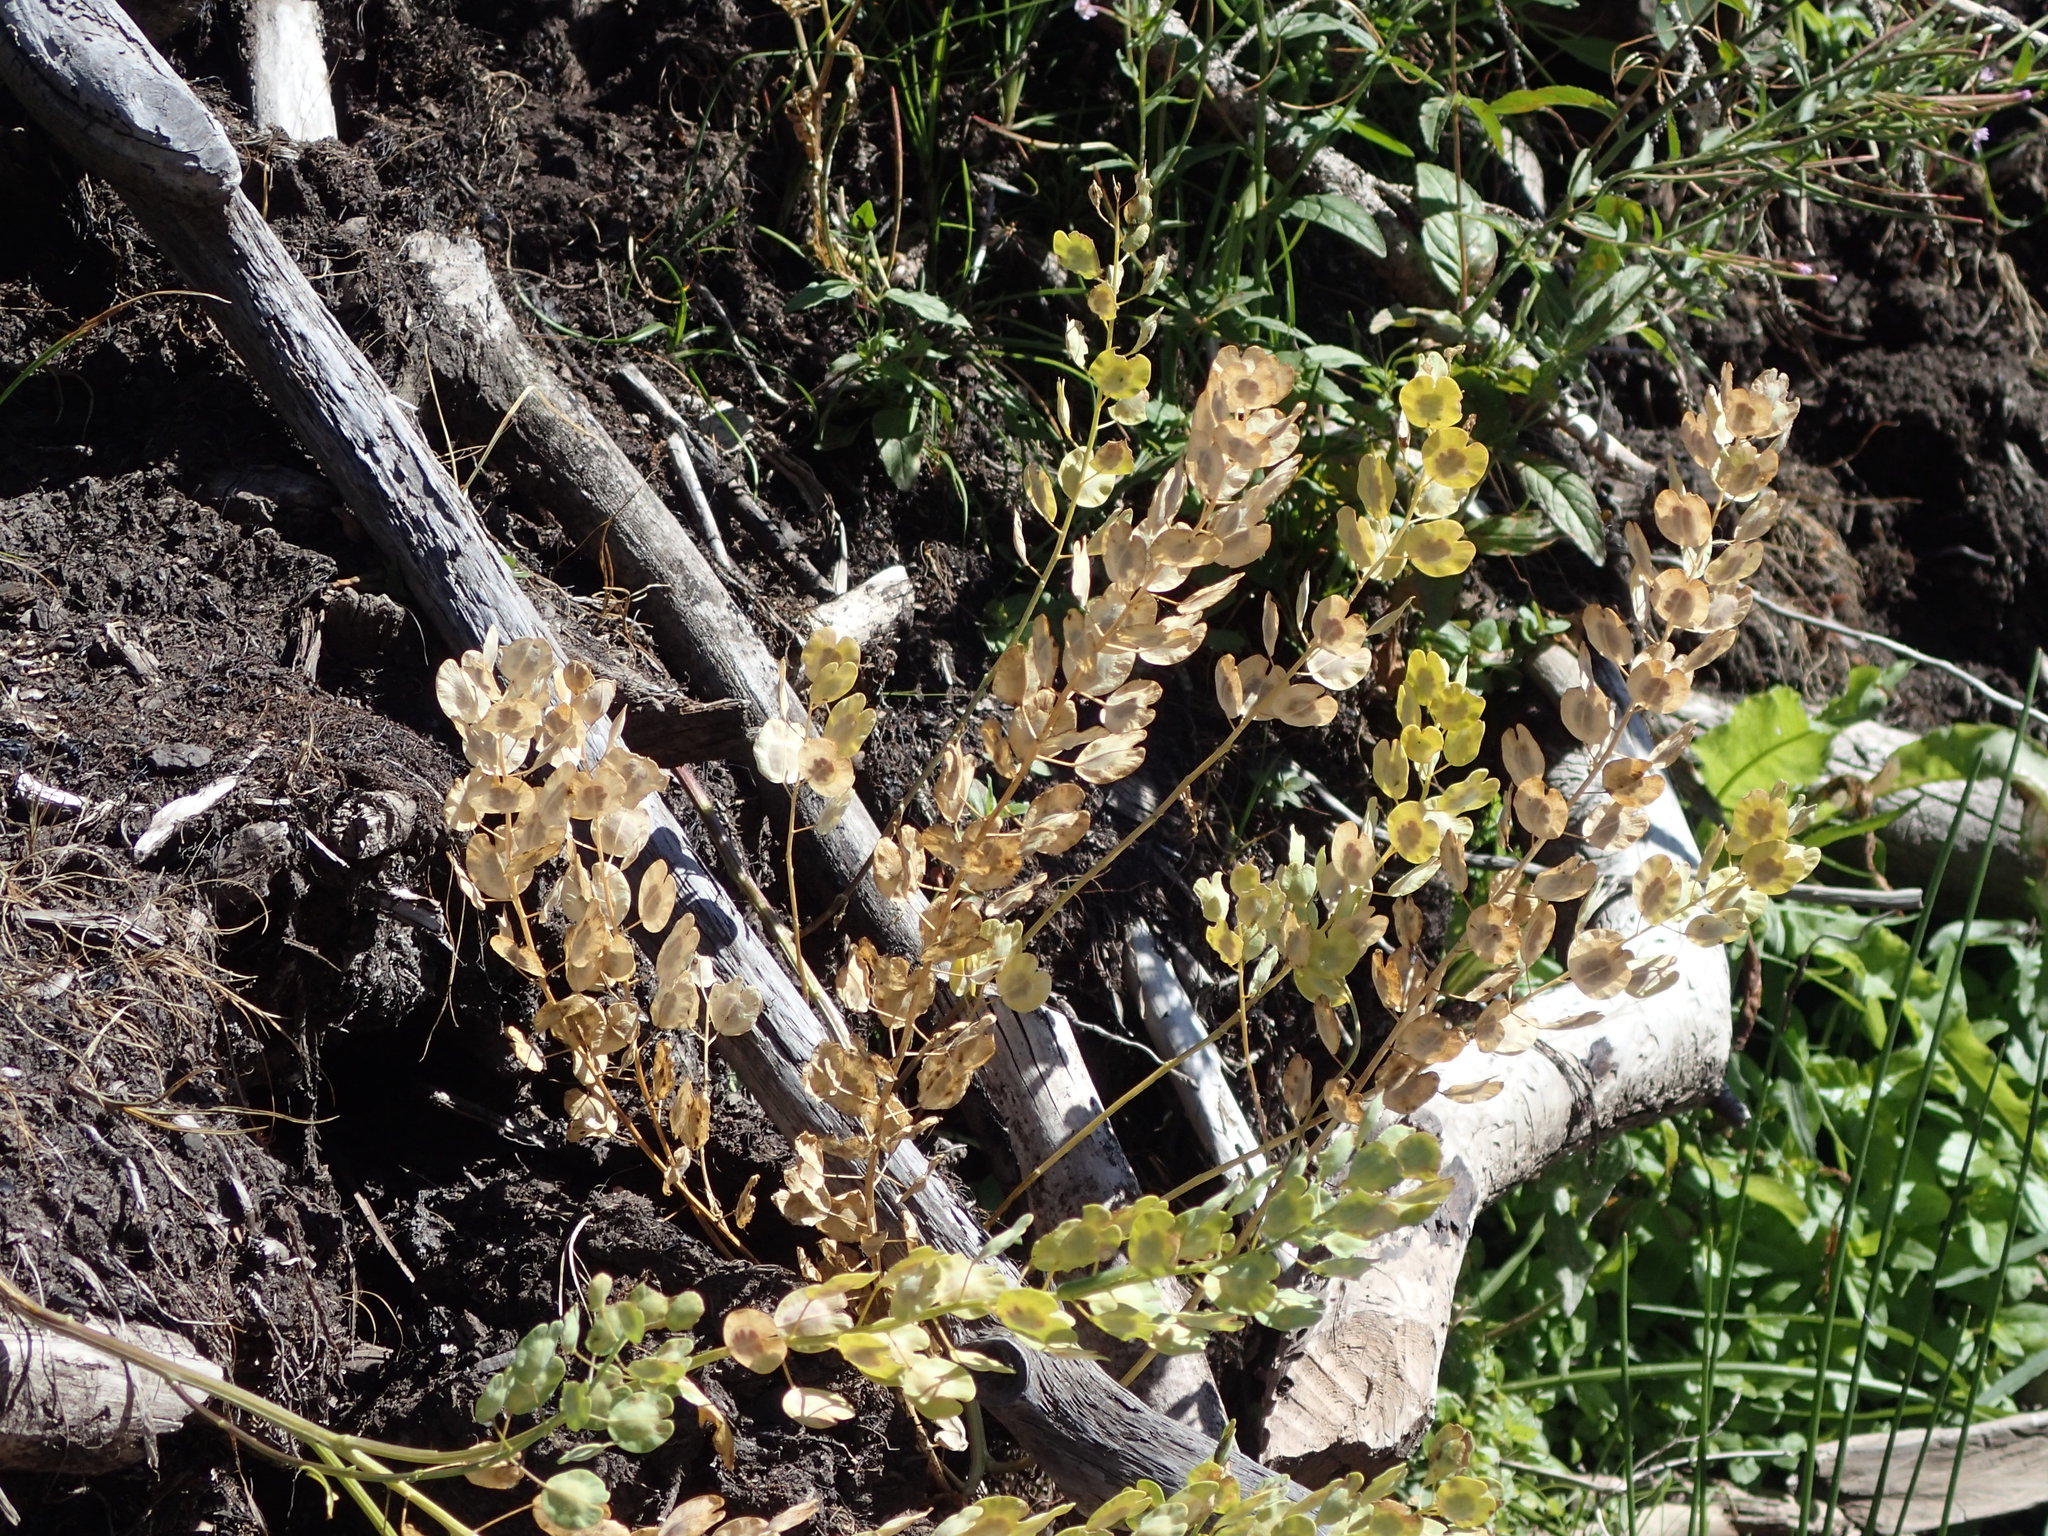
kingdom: Plantae
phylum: Tracheophyta
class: Magnoliopsida
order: Brassicales
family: Brassicaceae
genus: Thlaspi
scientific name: Thlaspi arvense
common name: Field pennycress
